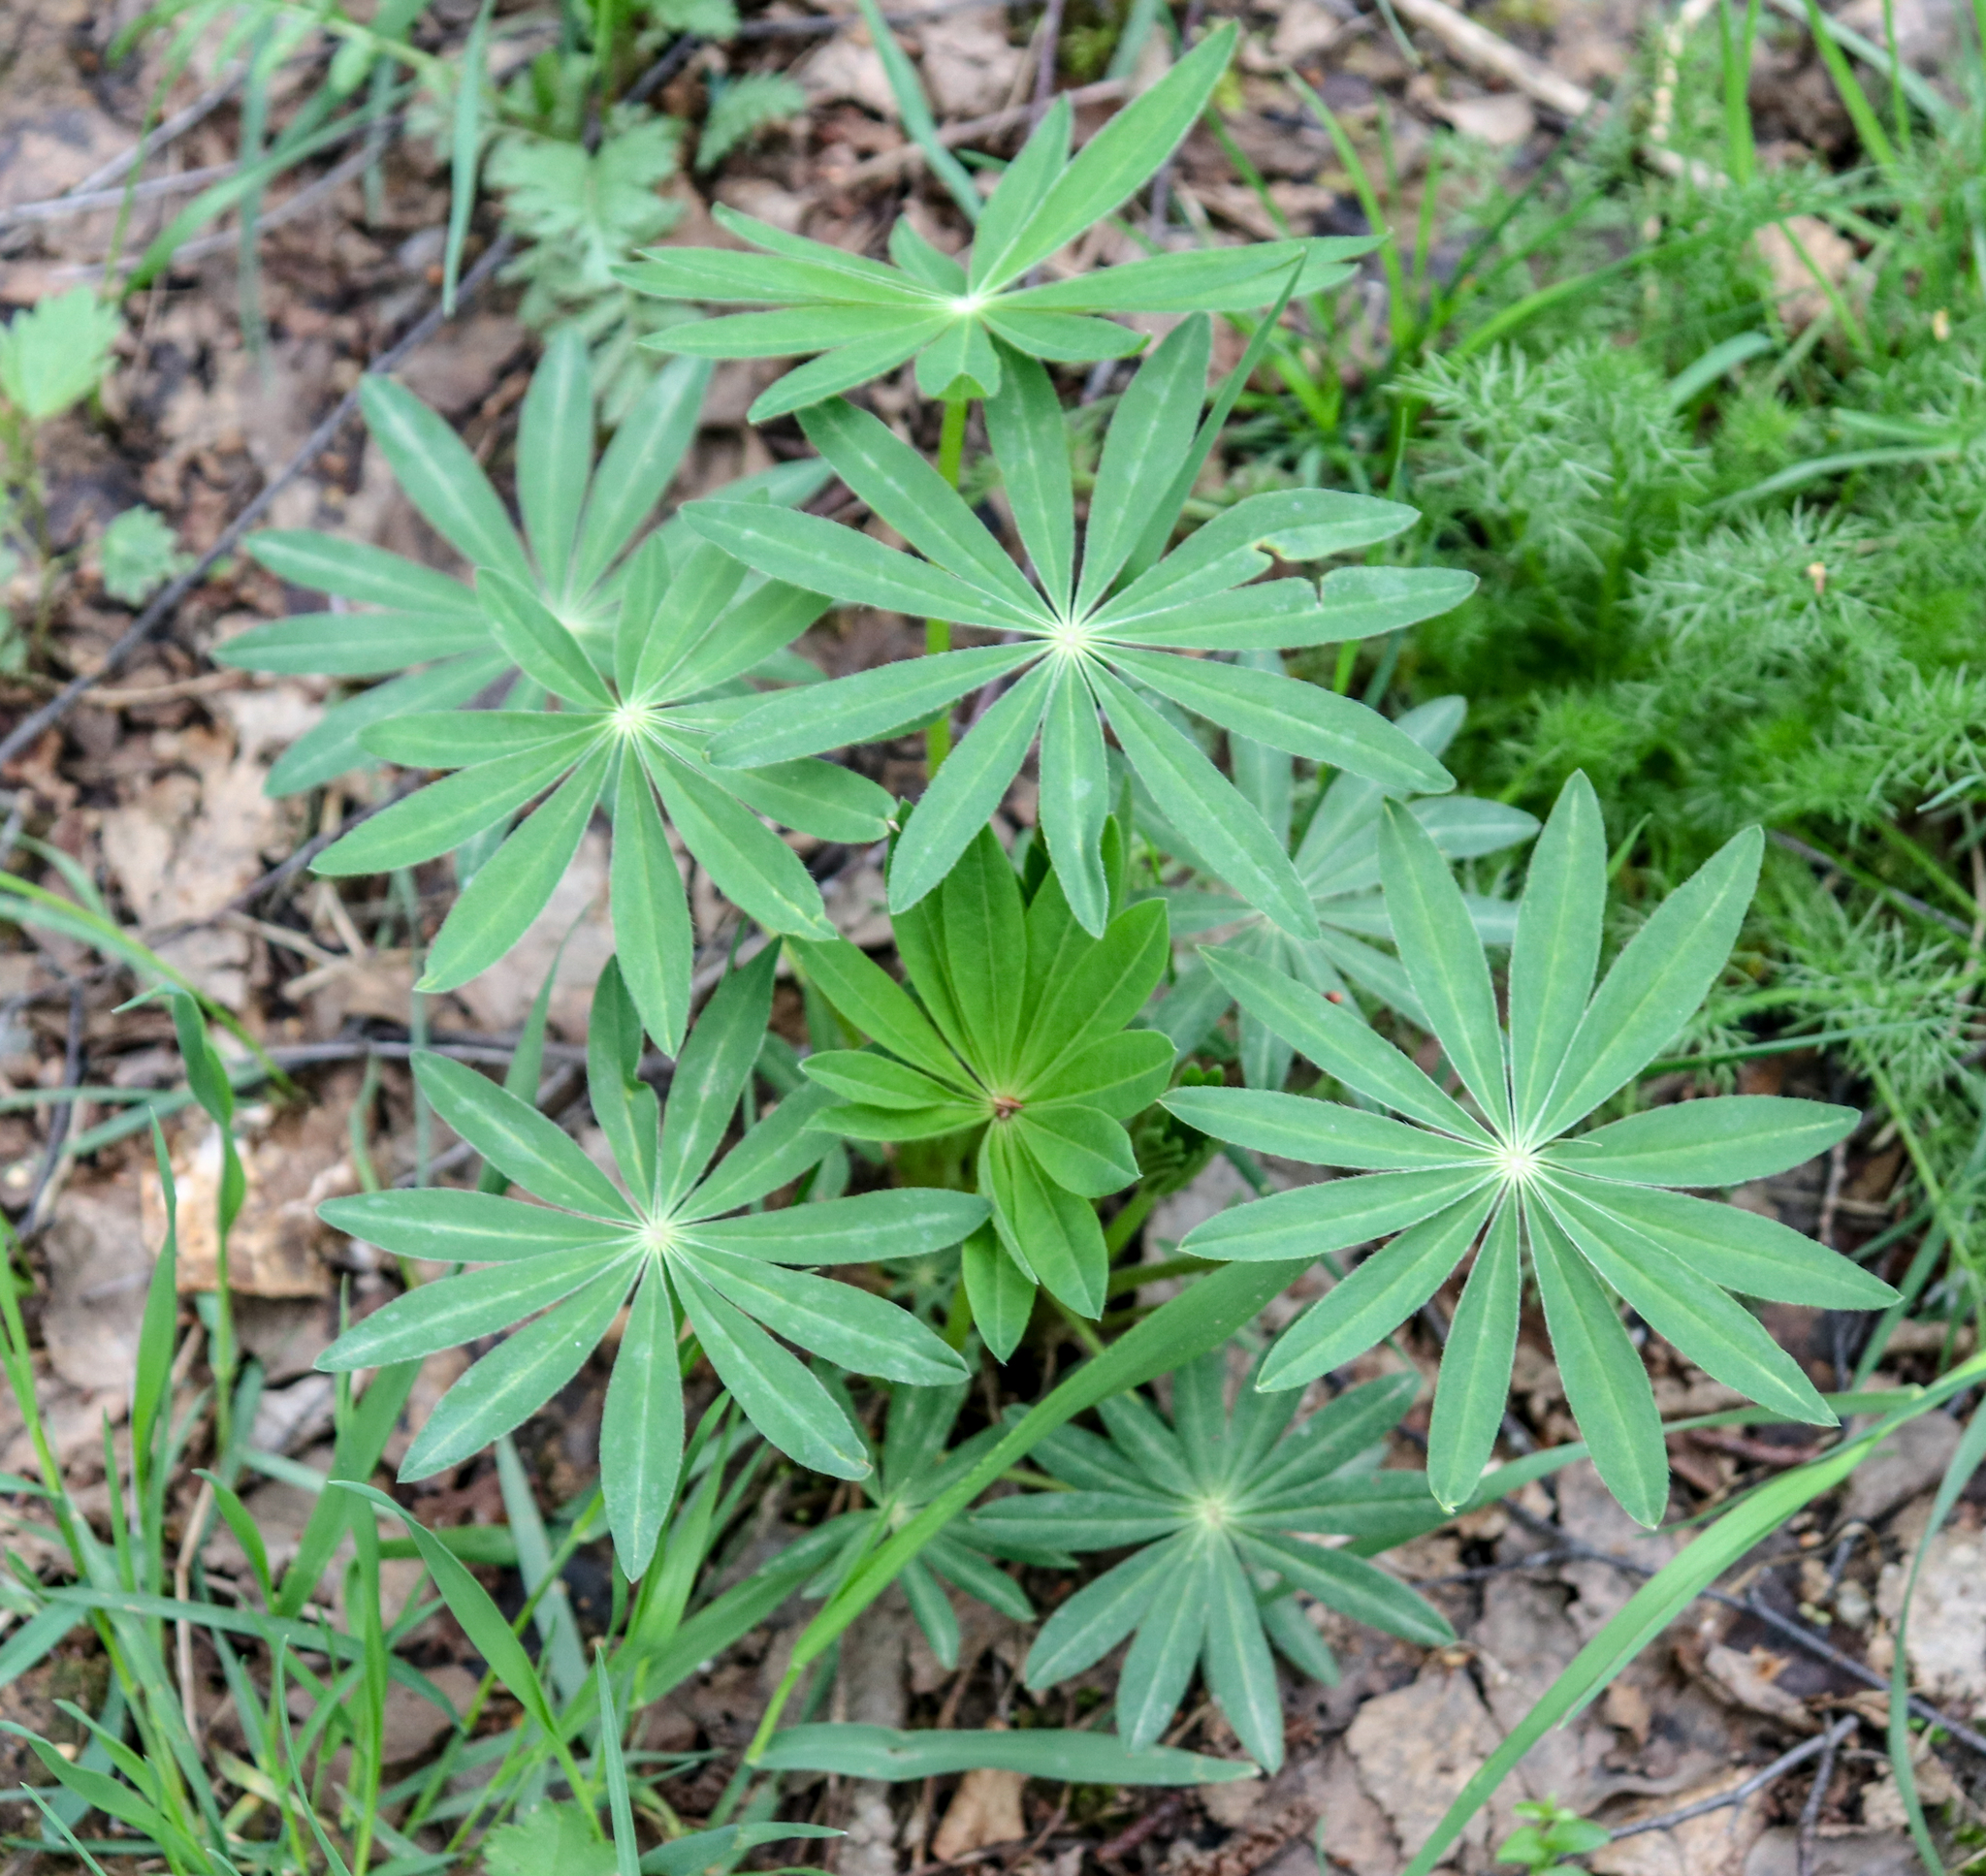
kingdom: Plantae
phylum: Tracheophyta
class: Magnoliopsida
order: Fabales
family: Fabaceae
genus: Lupinus
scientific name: Lupinus polyphyllus
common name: Garden lupin
